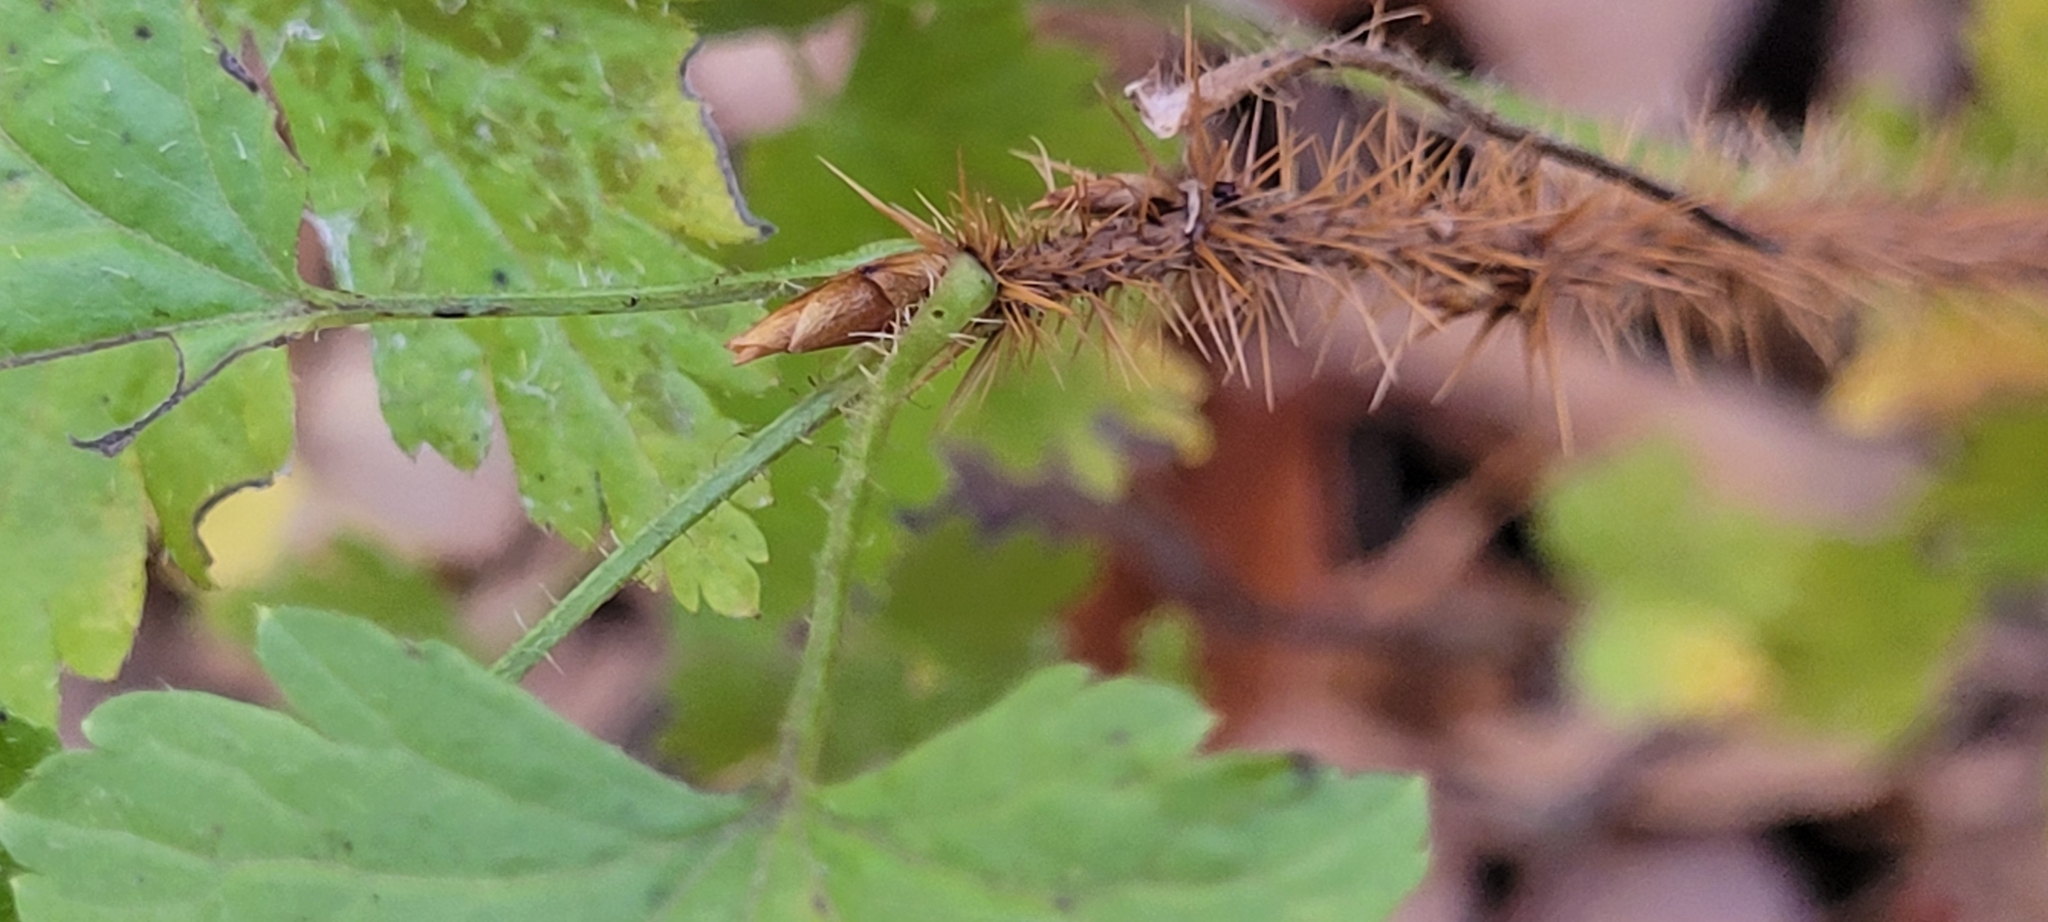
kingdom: Plantae
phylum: Tracheophyta
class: Magnoliopsida
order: Saxifragales
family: Grossulariaceae
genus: Ribes
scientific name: Ribes lacustre
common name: Black gooseberry
